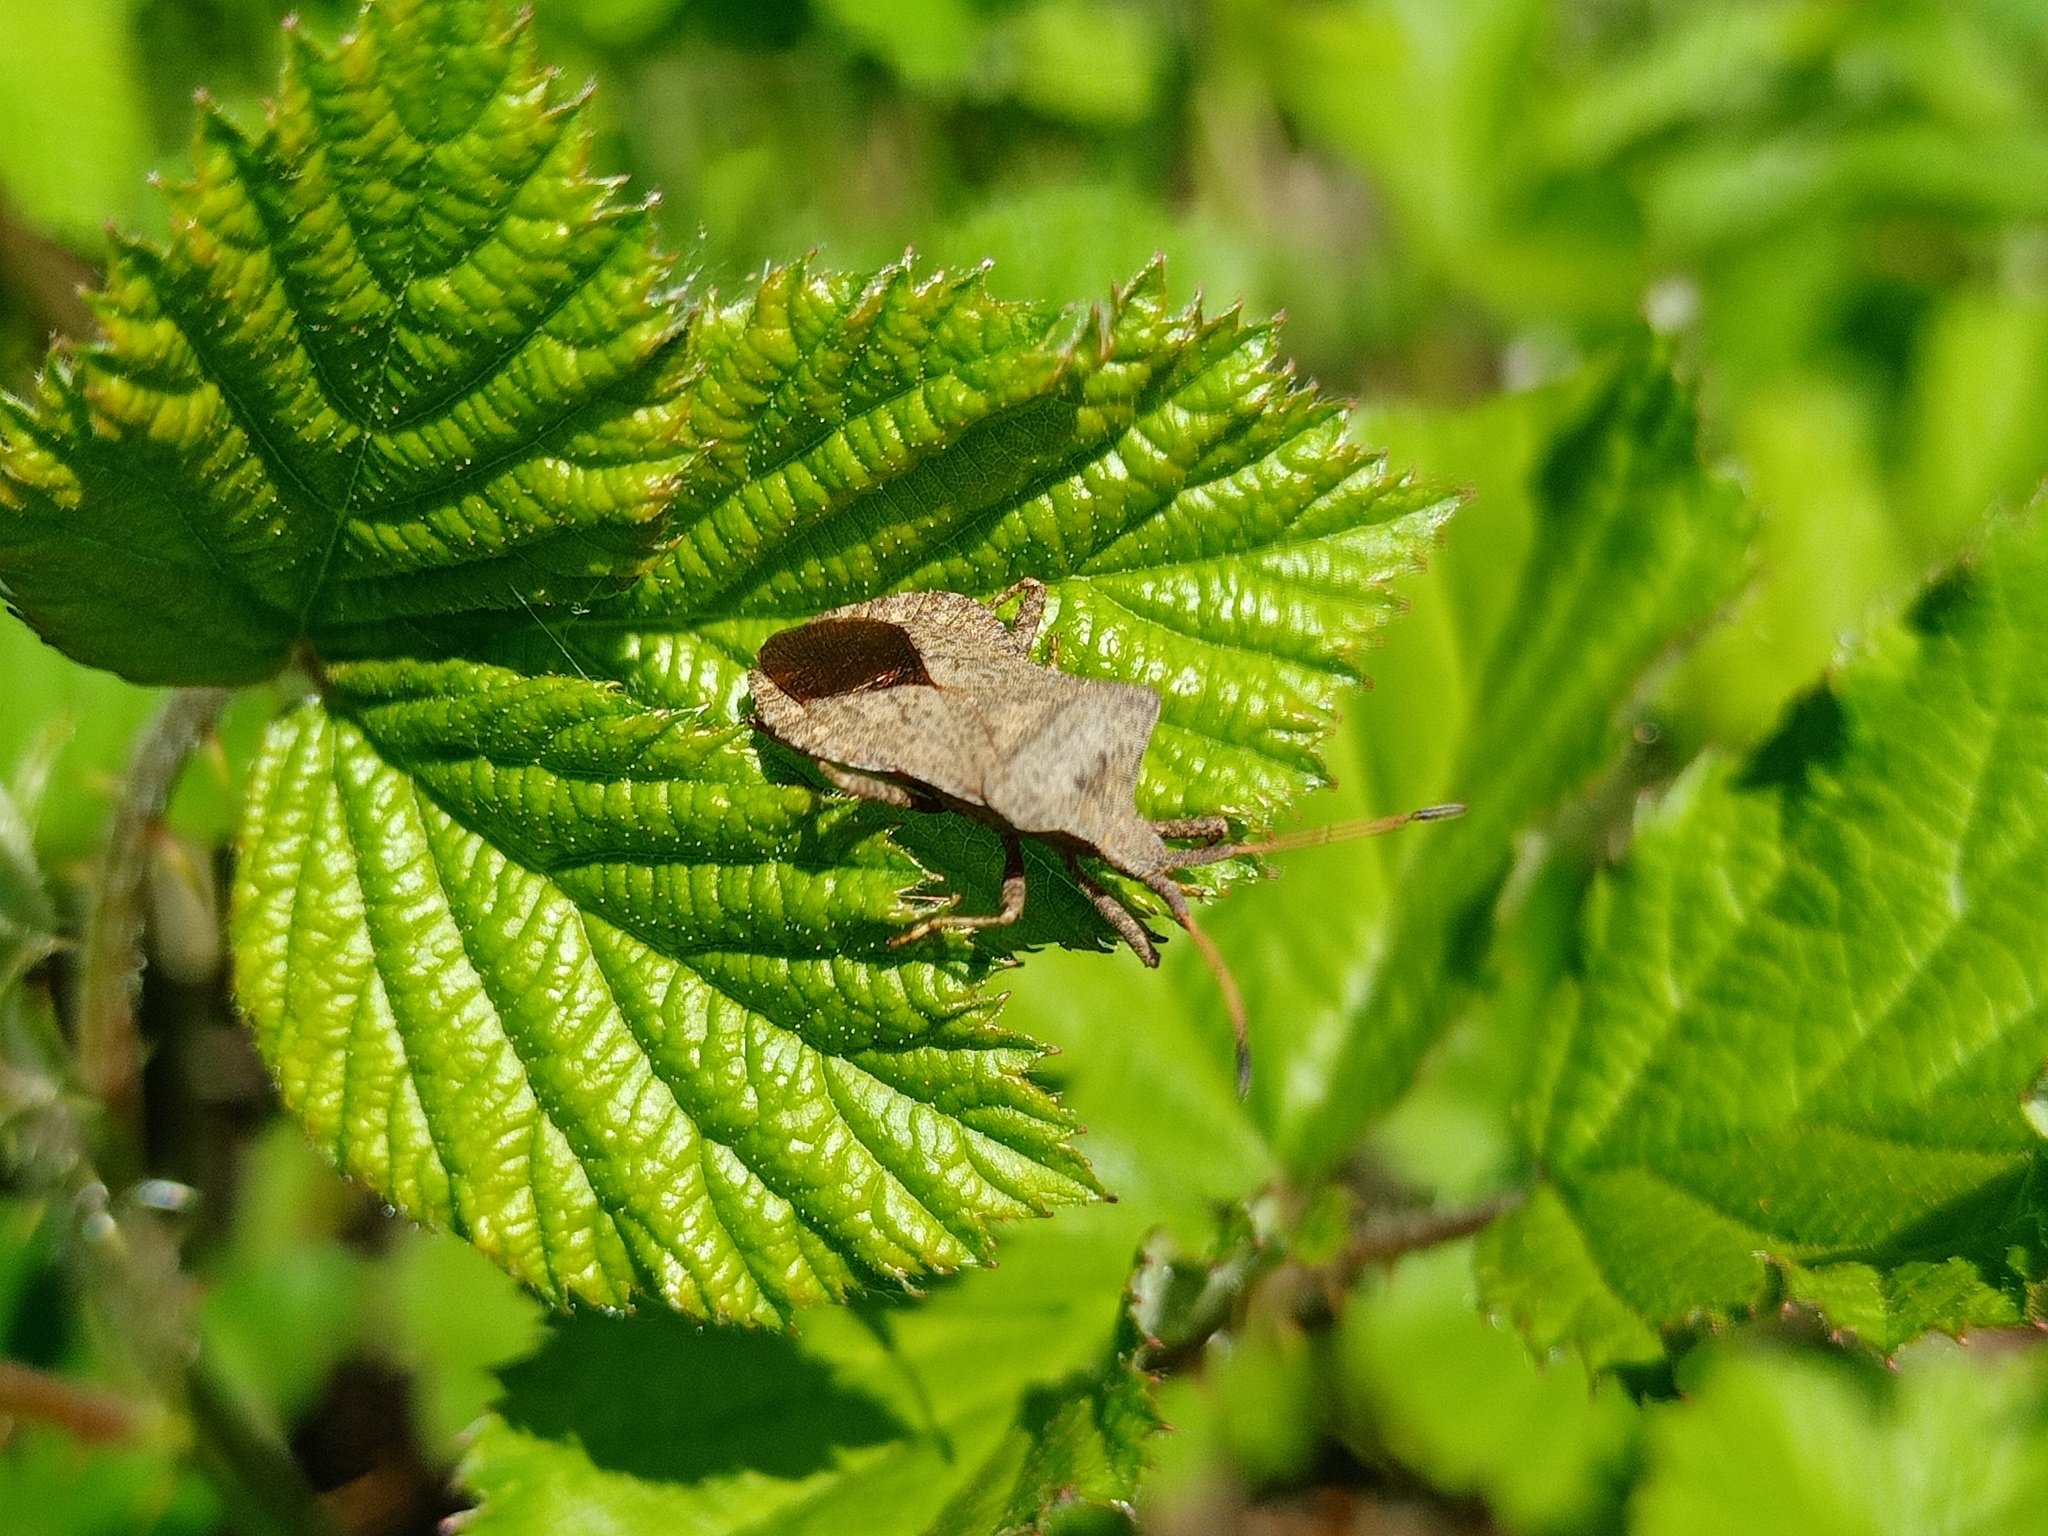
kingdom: Animalia
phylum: Arthropoda
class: Insecta
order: Hemiptera
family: Coreidae
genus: Coreus
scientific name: Coreus marginatus
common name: Dock bug
